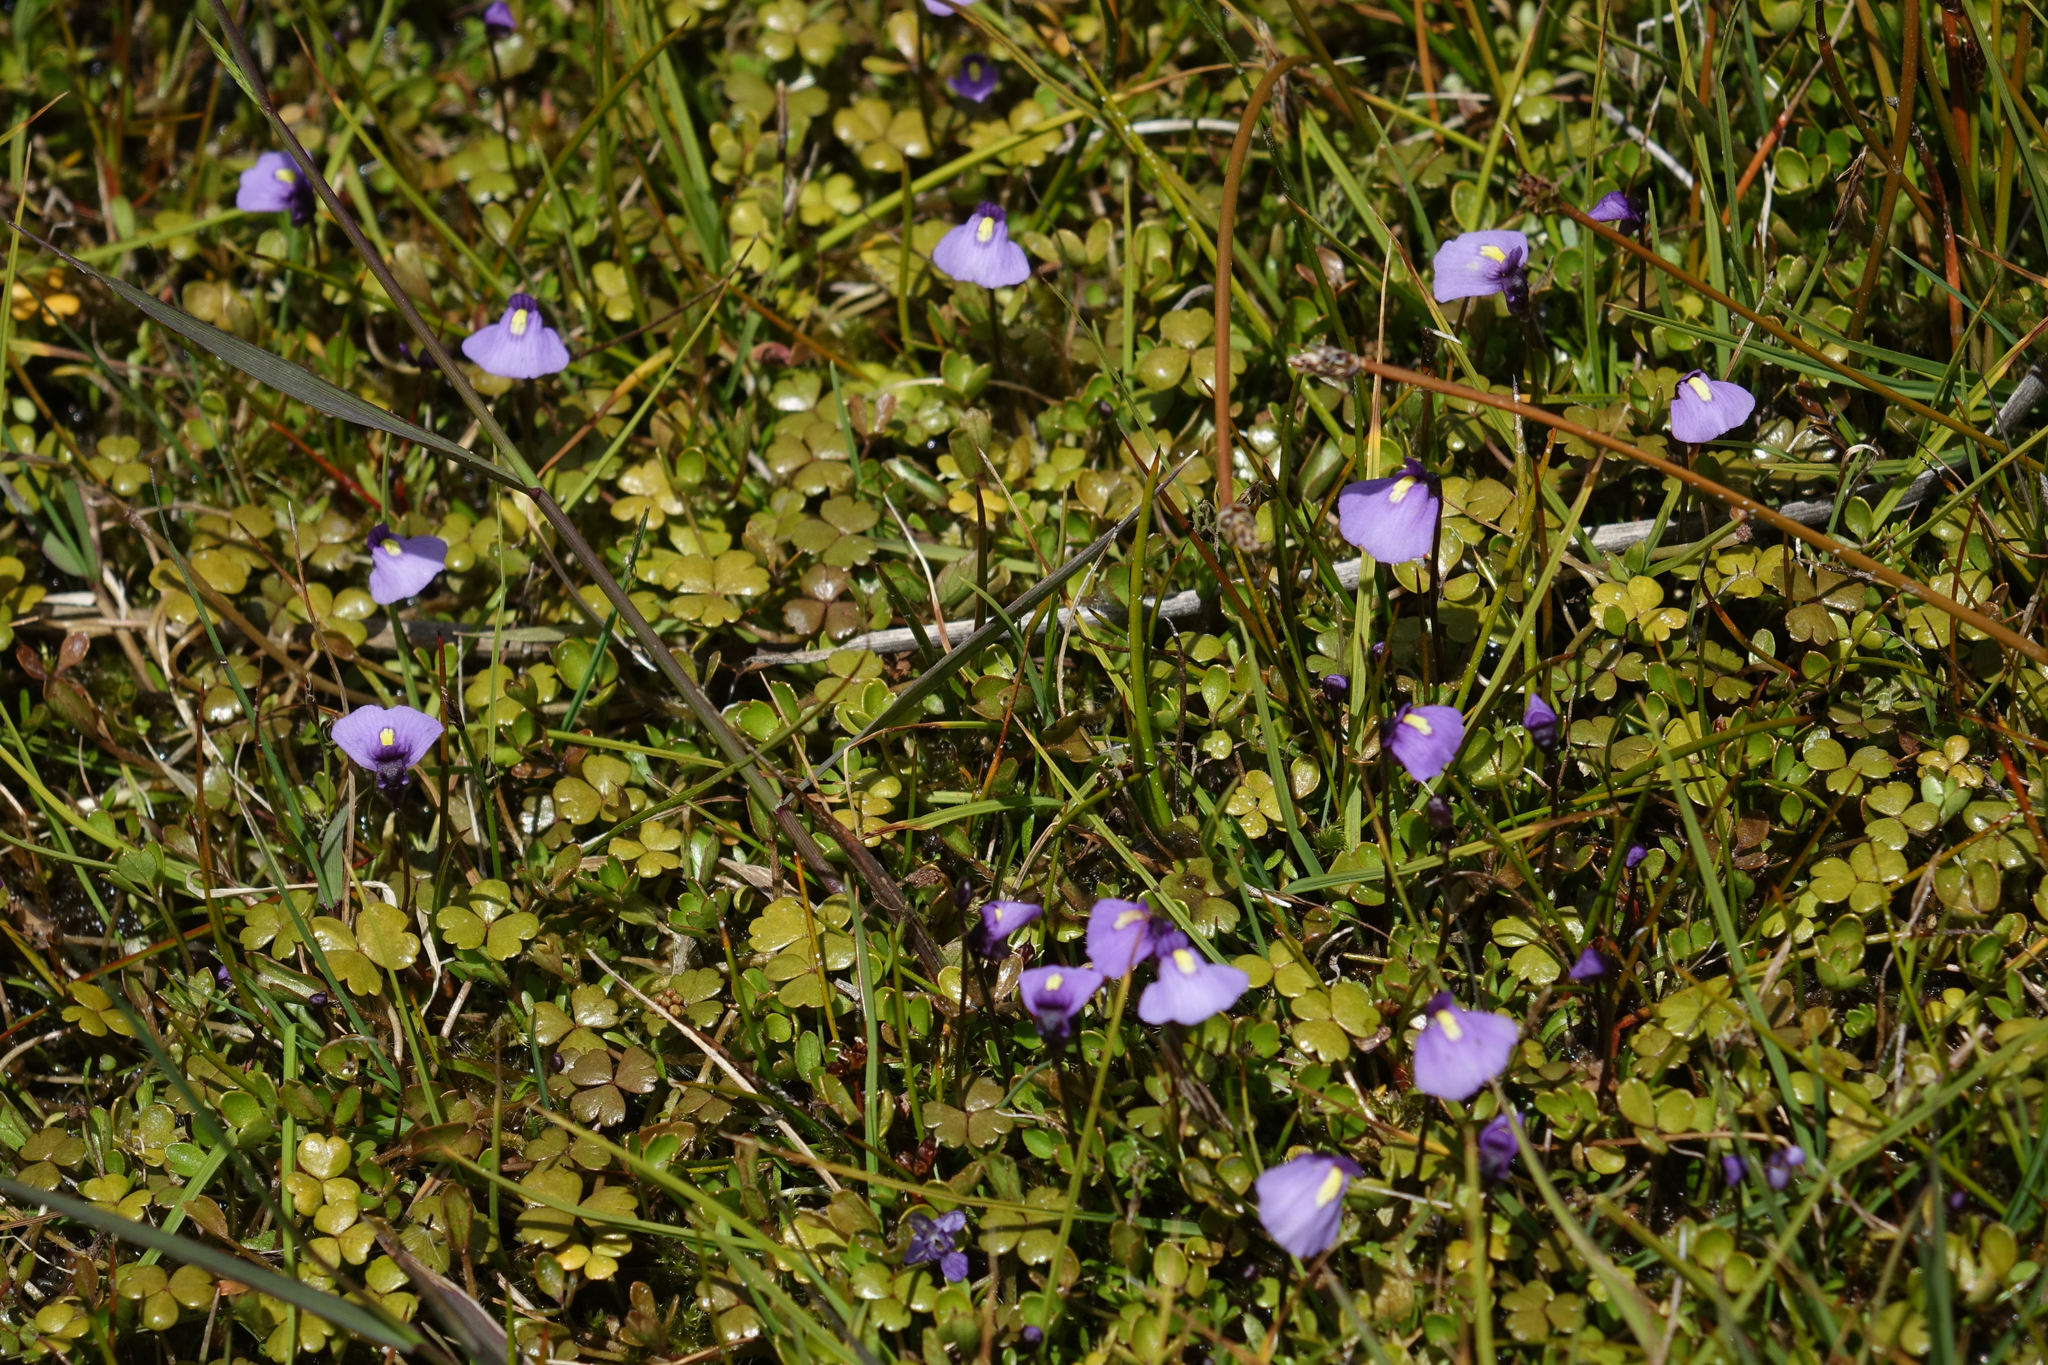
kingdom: Plantae
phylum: Tracheophyta
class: Magnoliopsida
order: Lamiales
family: Lentibulariaceae
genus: Utricularia
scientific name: Utricularia dichotoma
